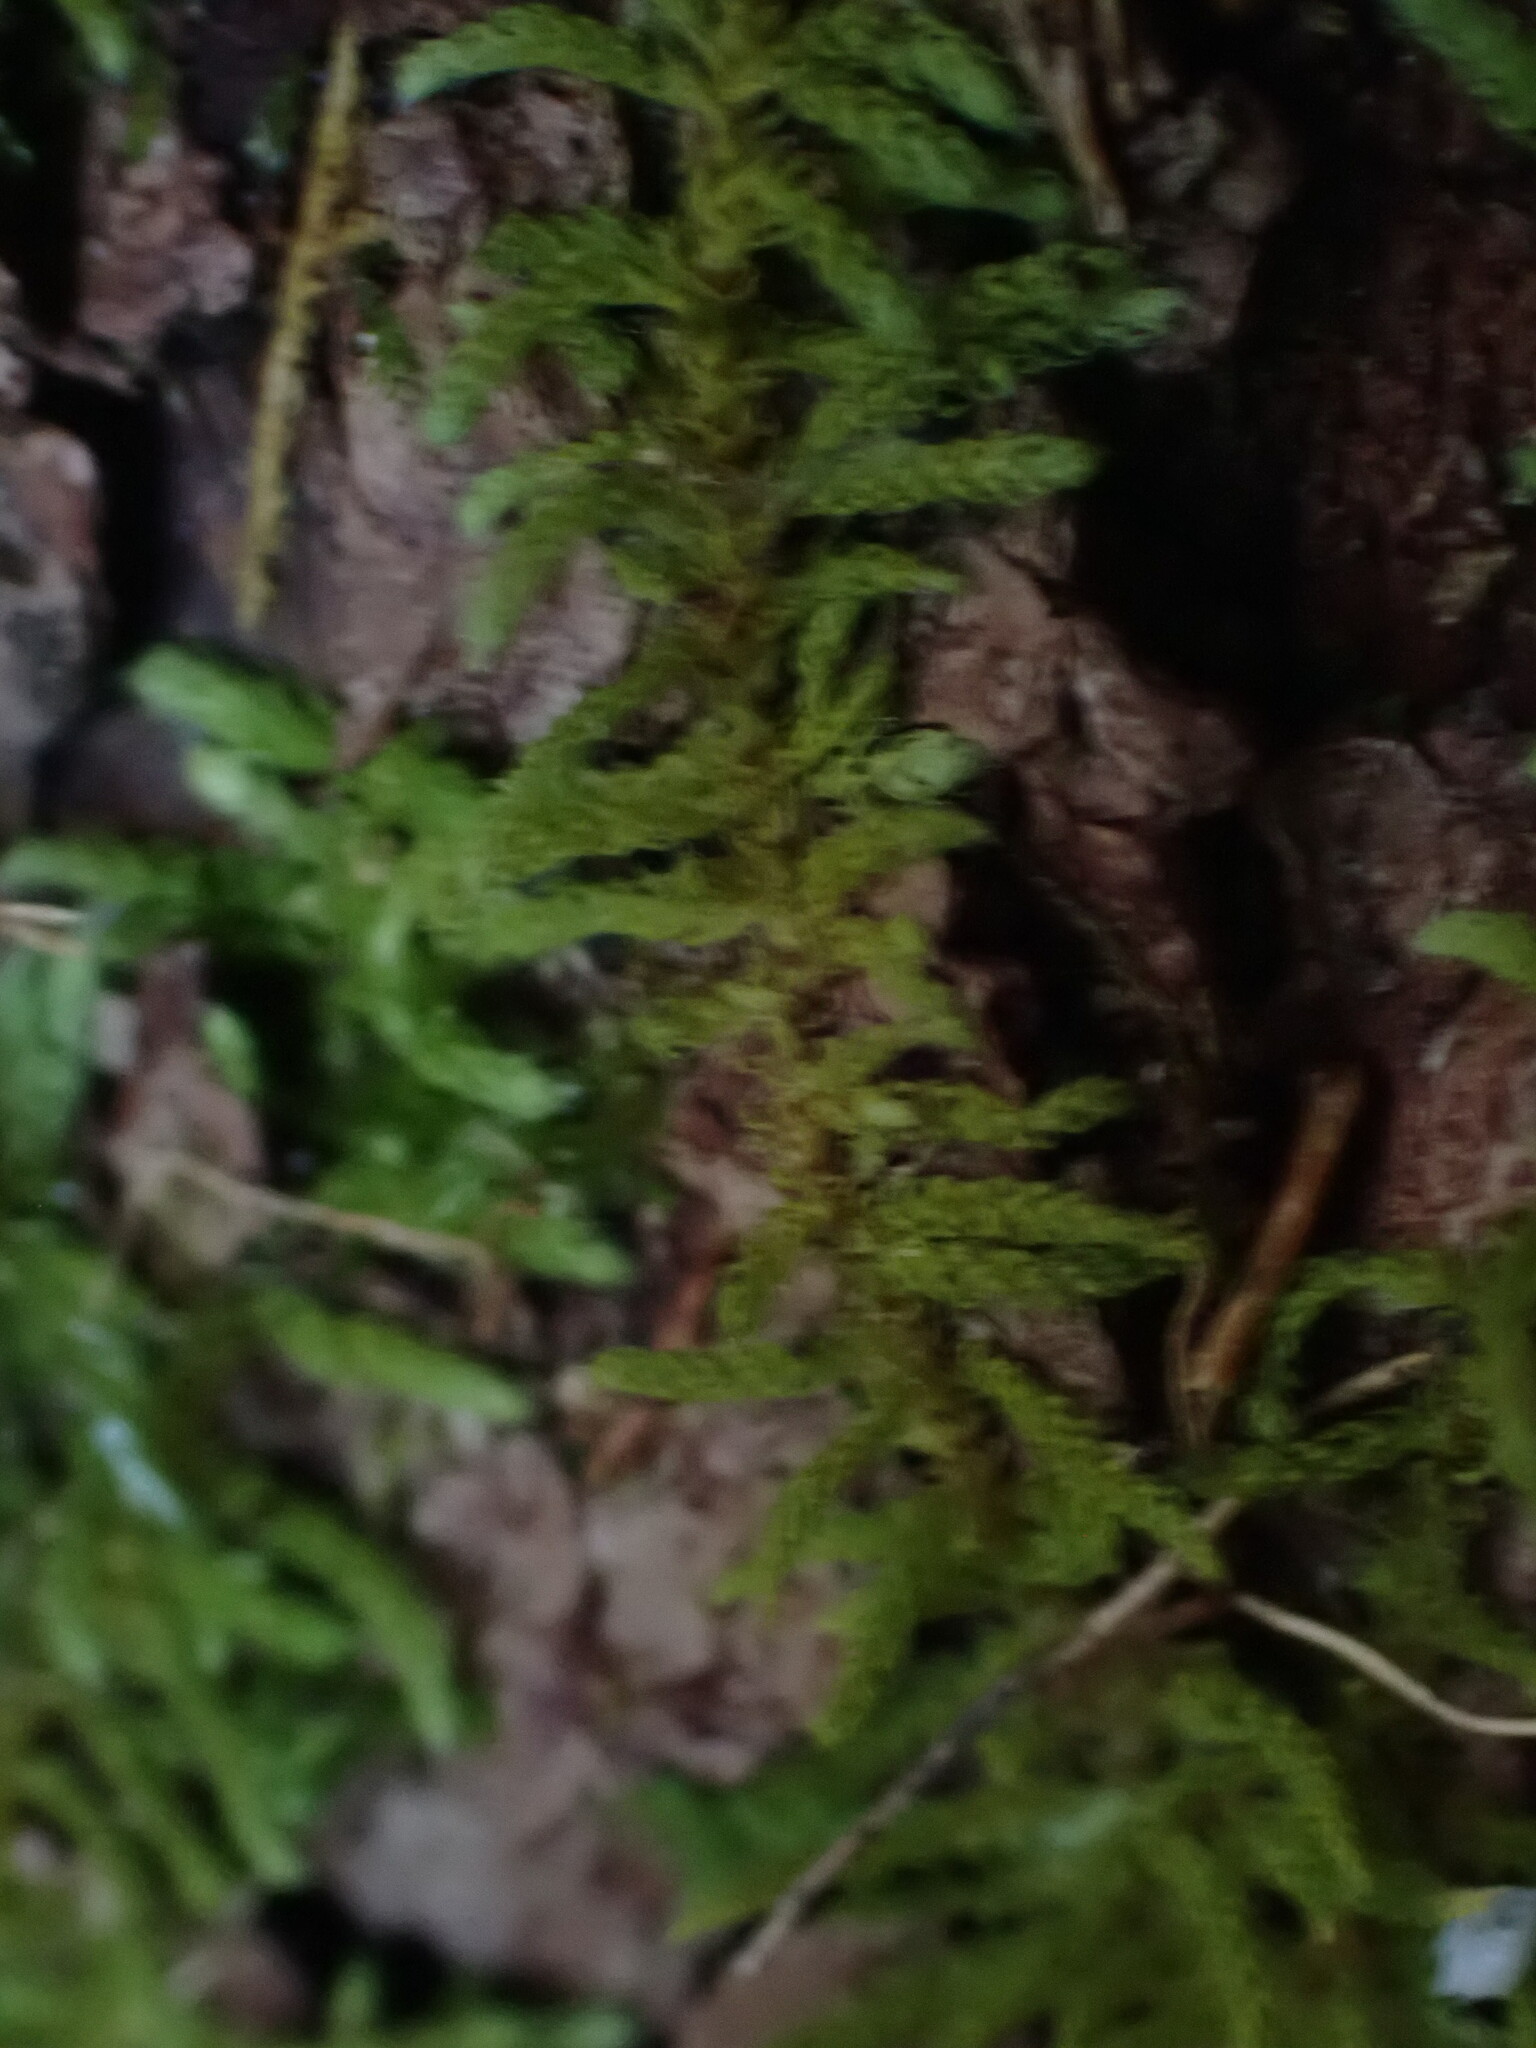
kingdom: Plantae
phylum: Bryophyta
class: Bryopsida
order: Hypnales
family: Brachytheciaceae
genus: Claopodium
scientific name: Claopodium crispifolium
